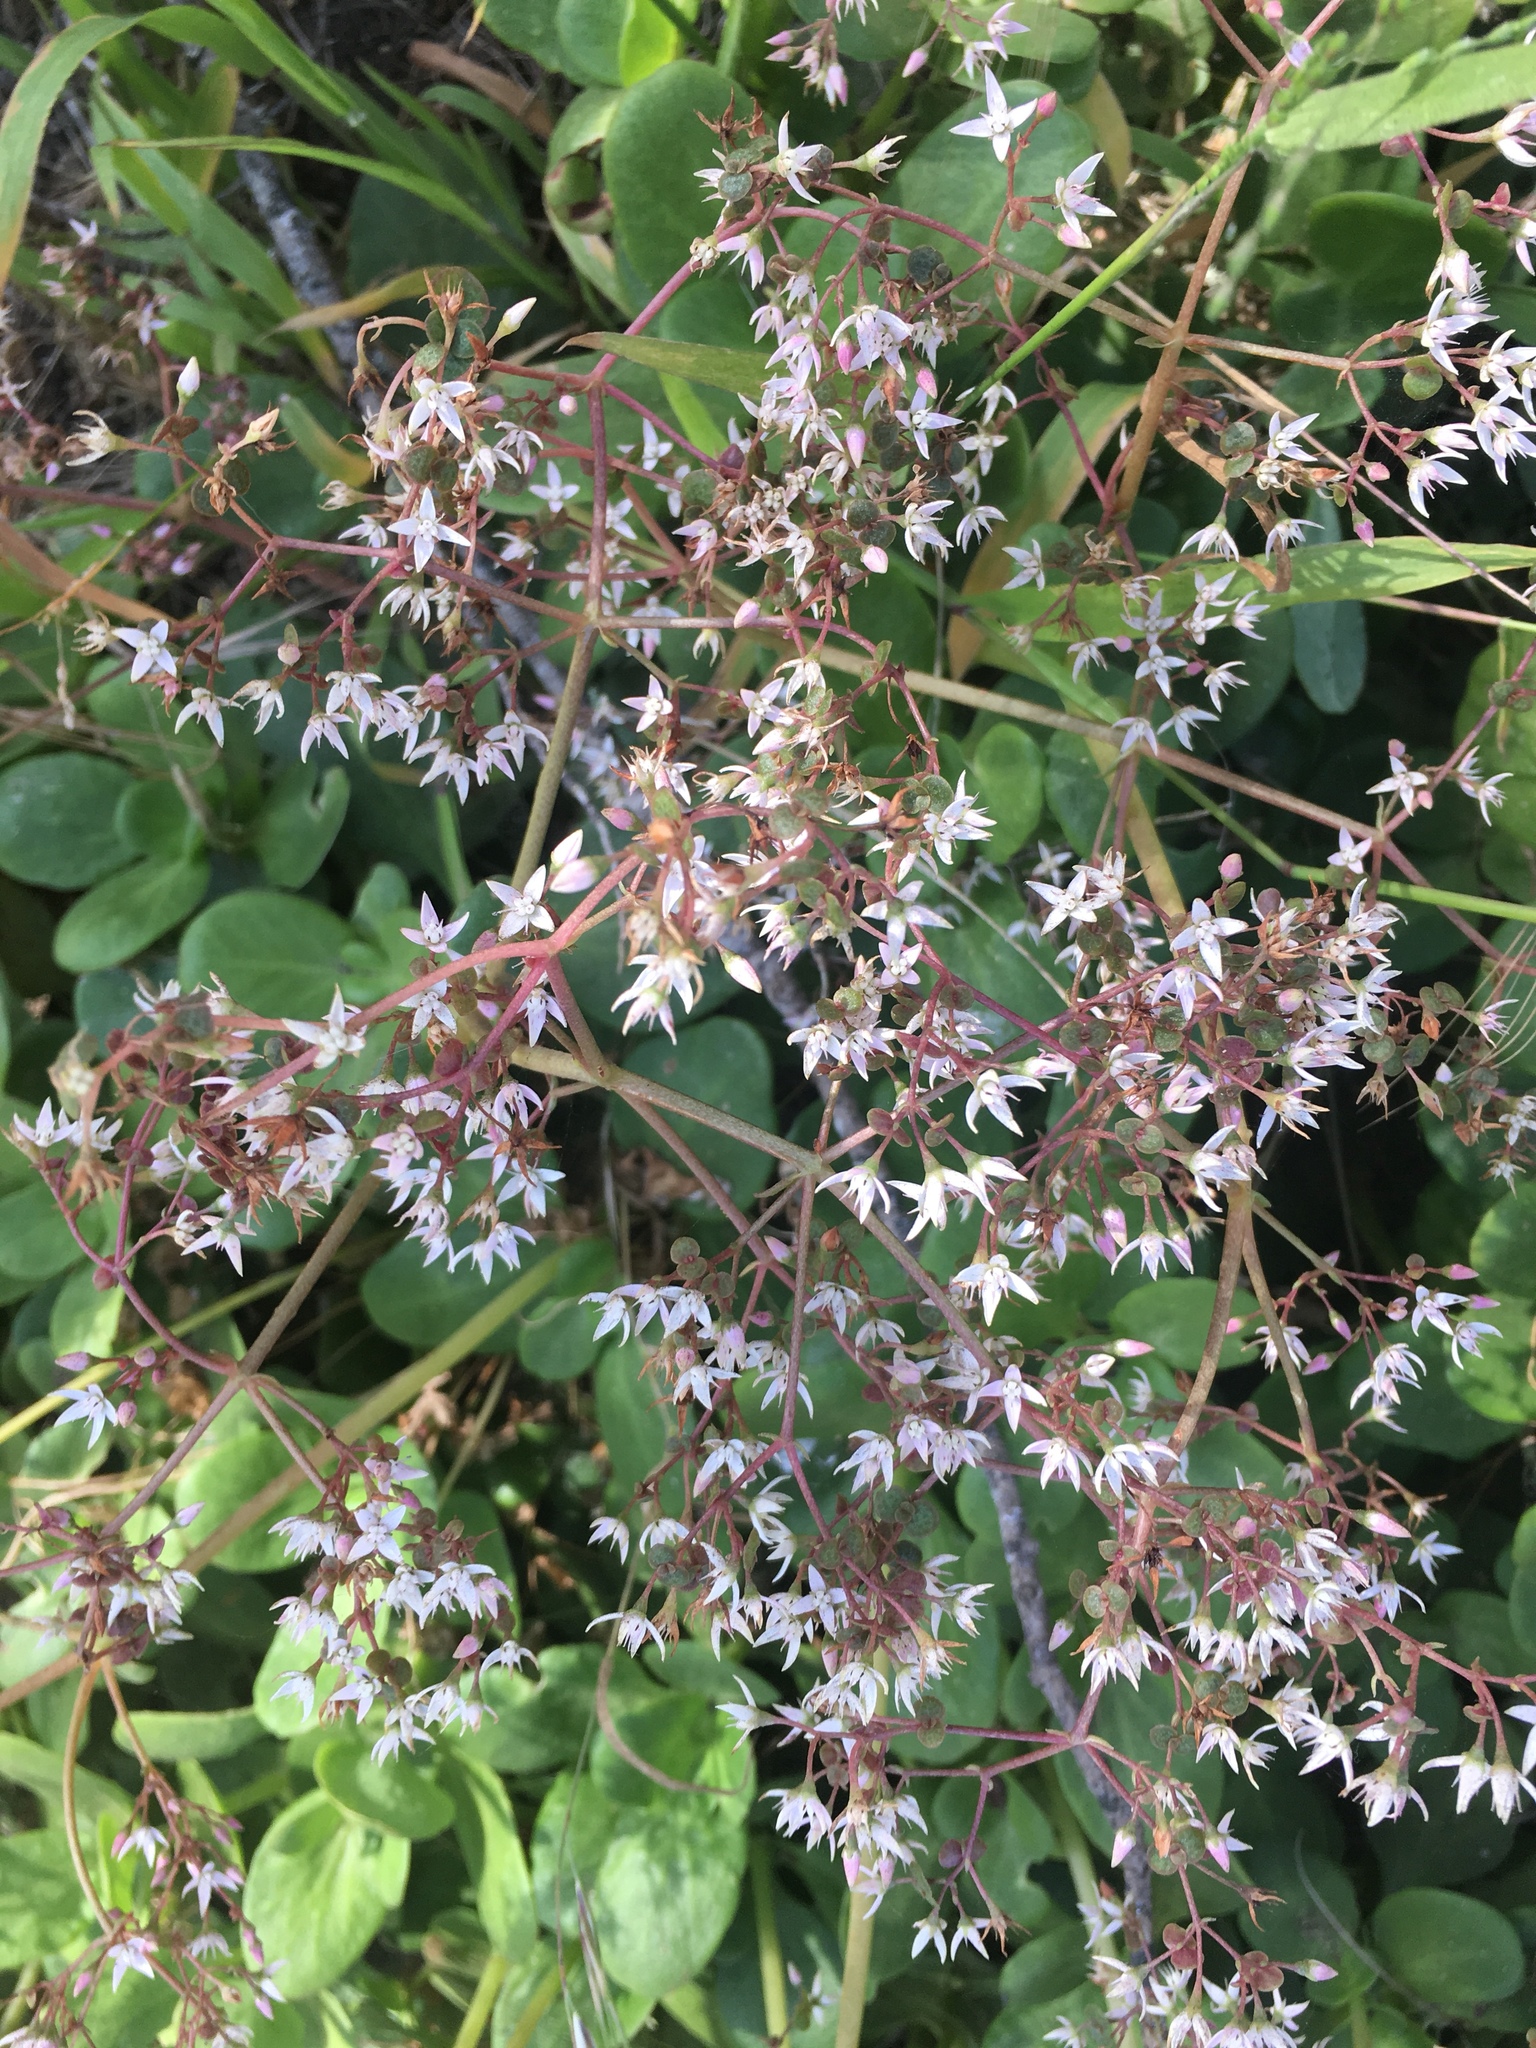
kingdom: Plantae
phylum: Tracheophyta
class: Magnoliopsida
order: Saxifragales
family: Crassulaceae
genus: Crassula
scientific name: Crassula multicava
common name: Cape province pygmyweed
